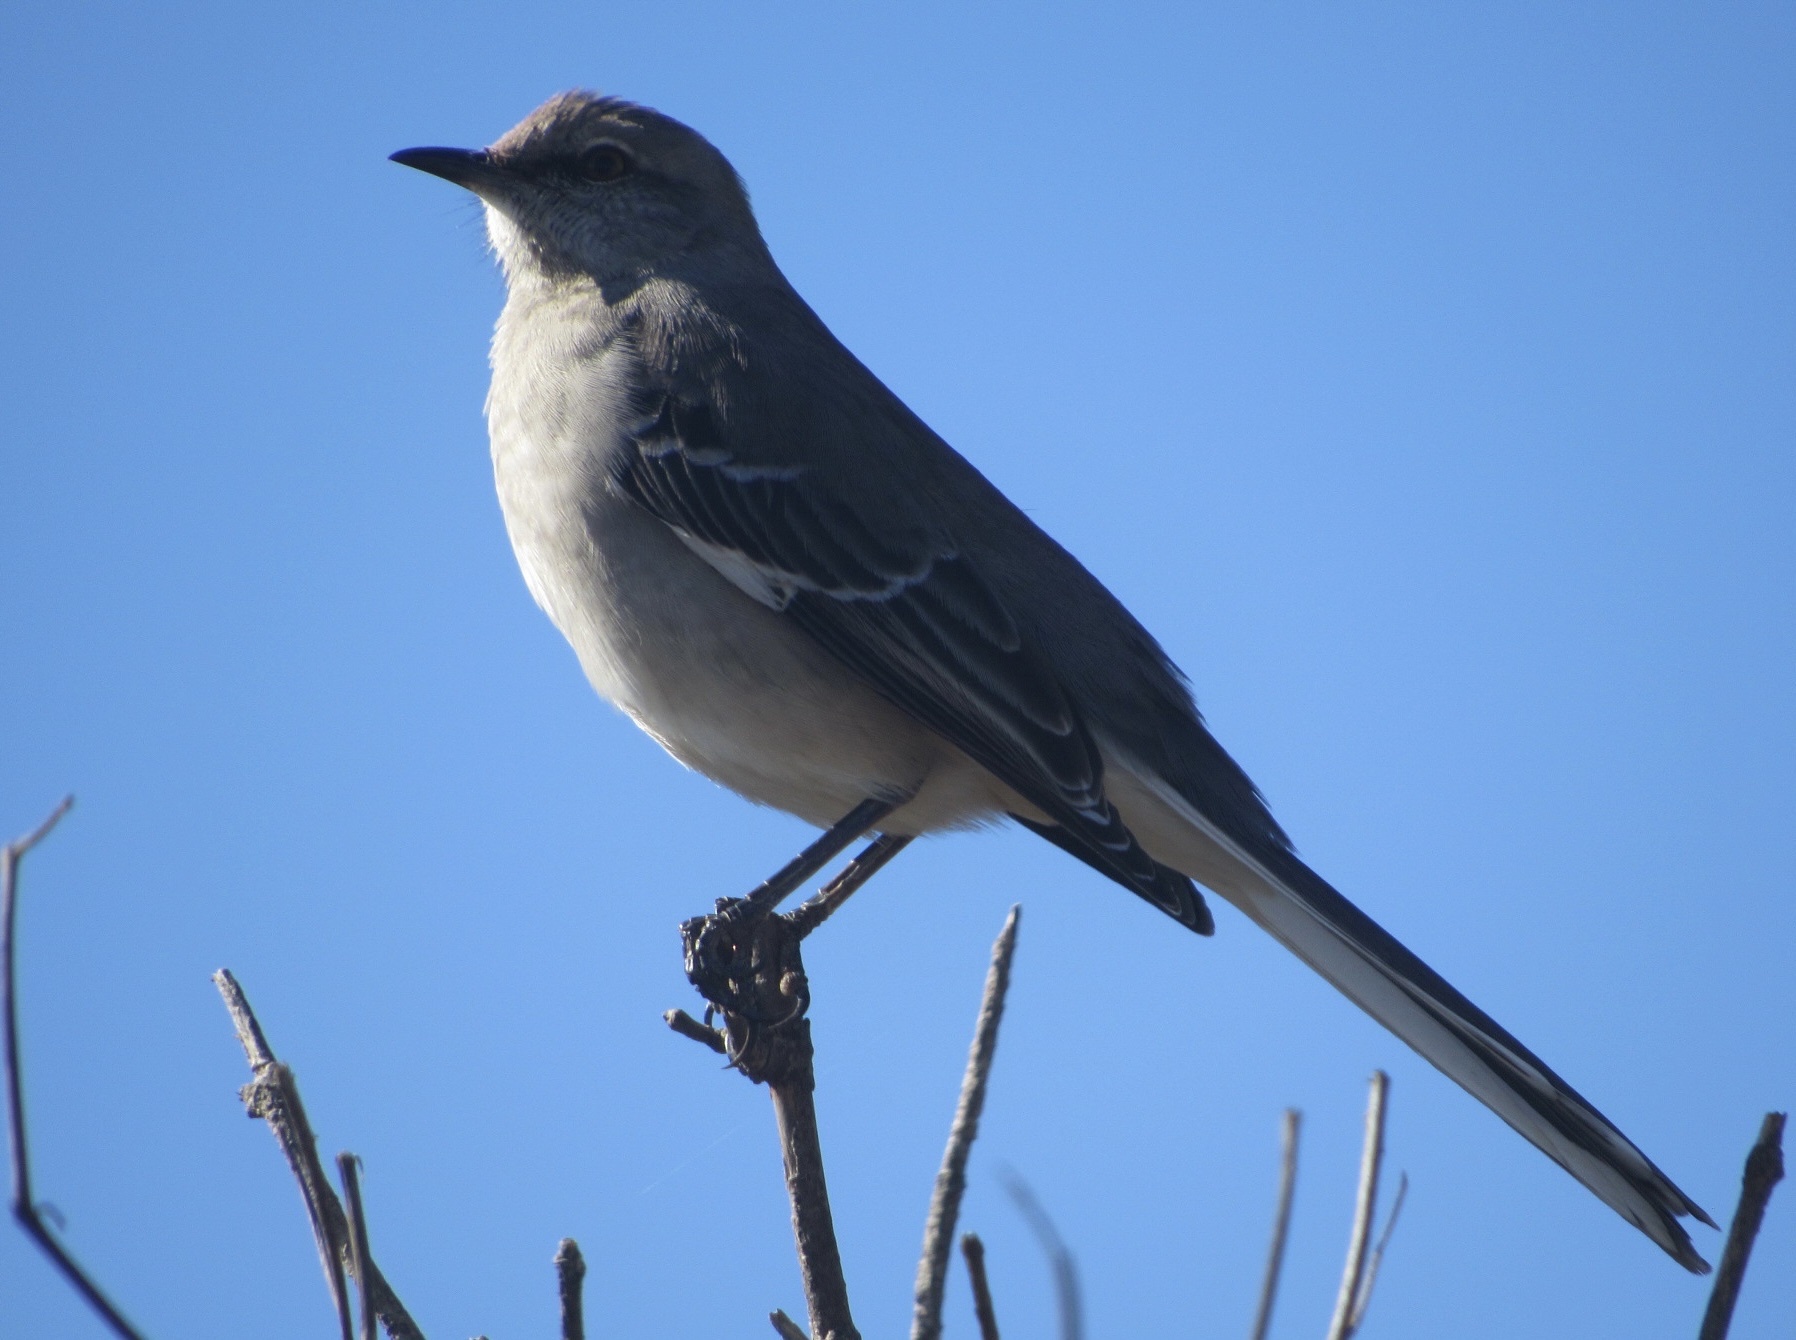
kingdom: Animalia
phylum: Chordata
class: Aves
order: Passeriformes
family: Mimidae
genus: Mimus
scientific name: Mimus polyglottos
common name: Northern mockingbird
